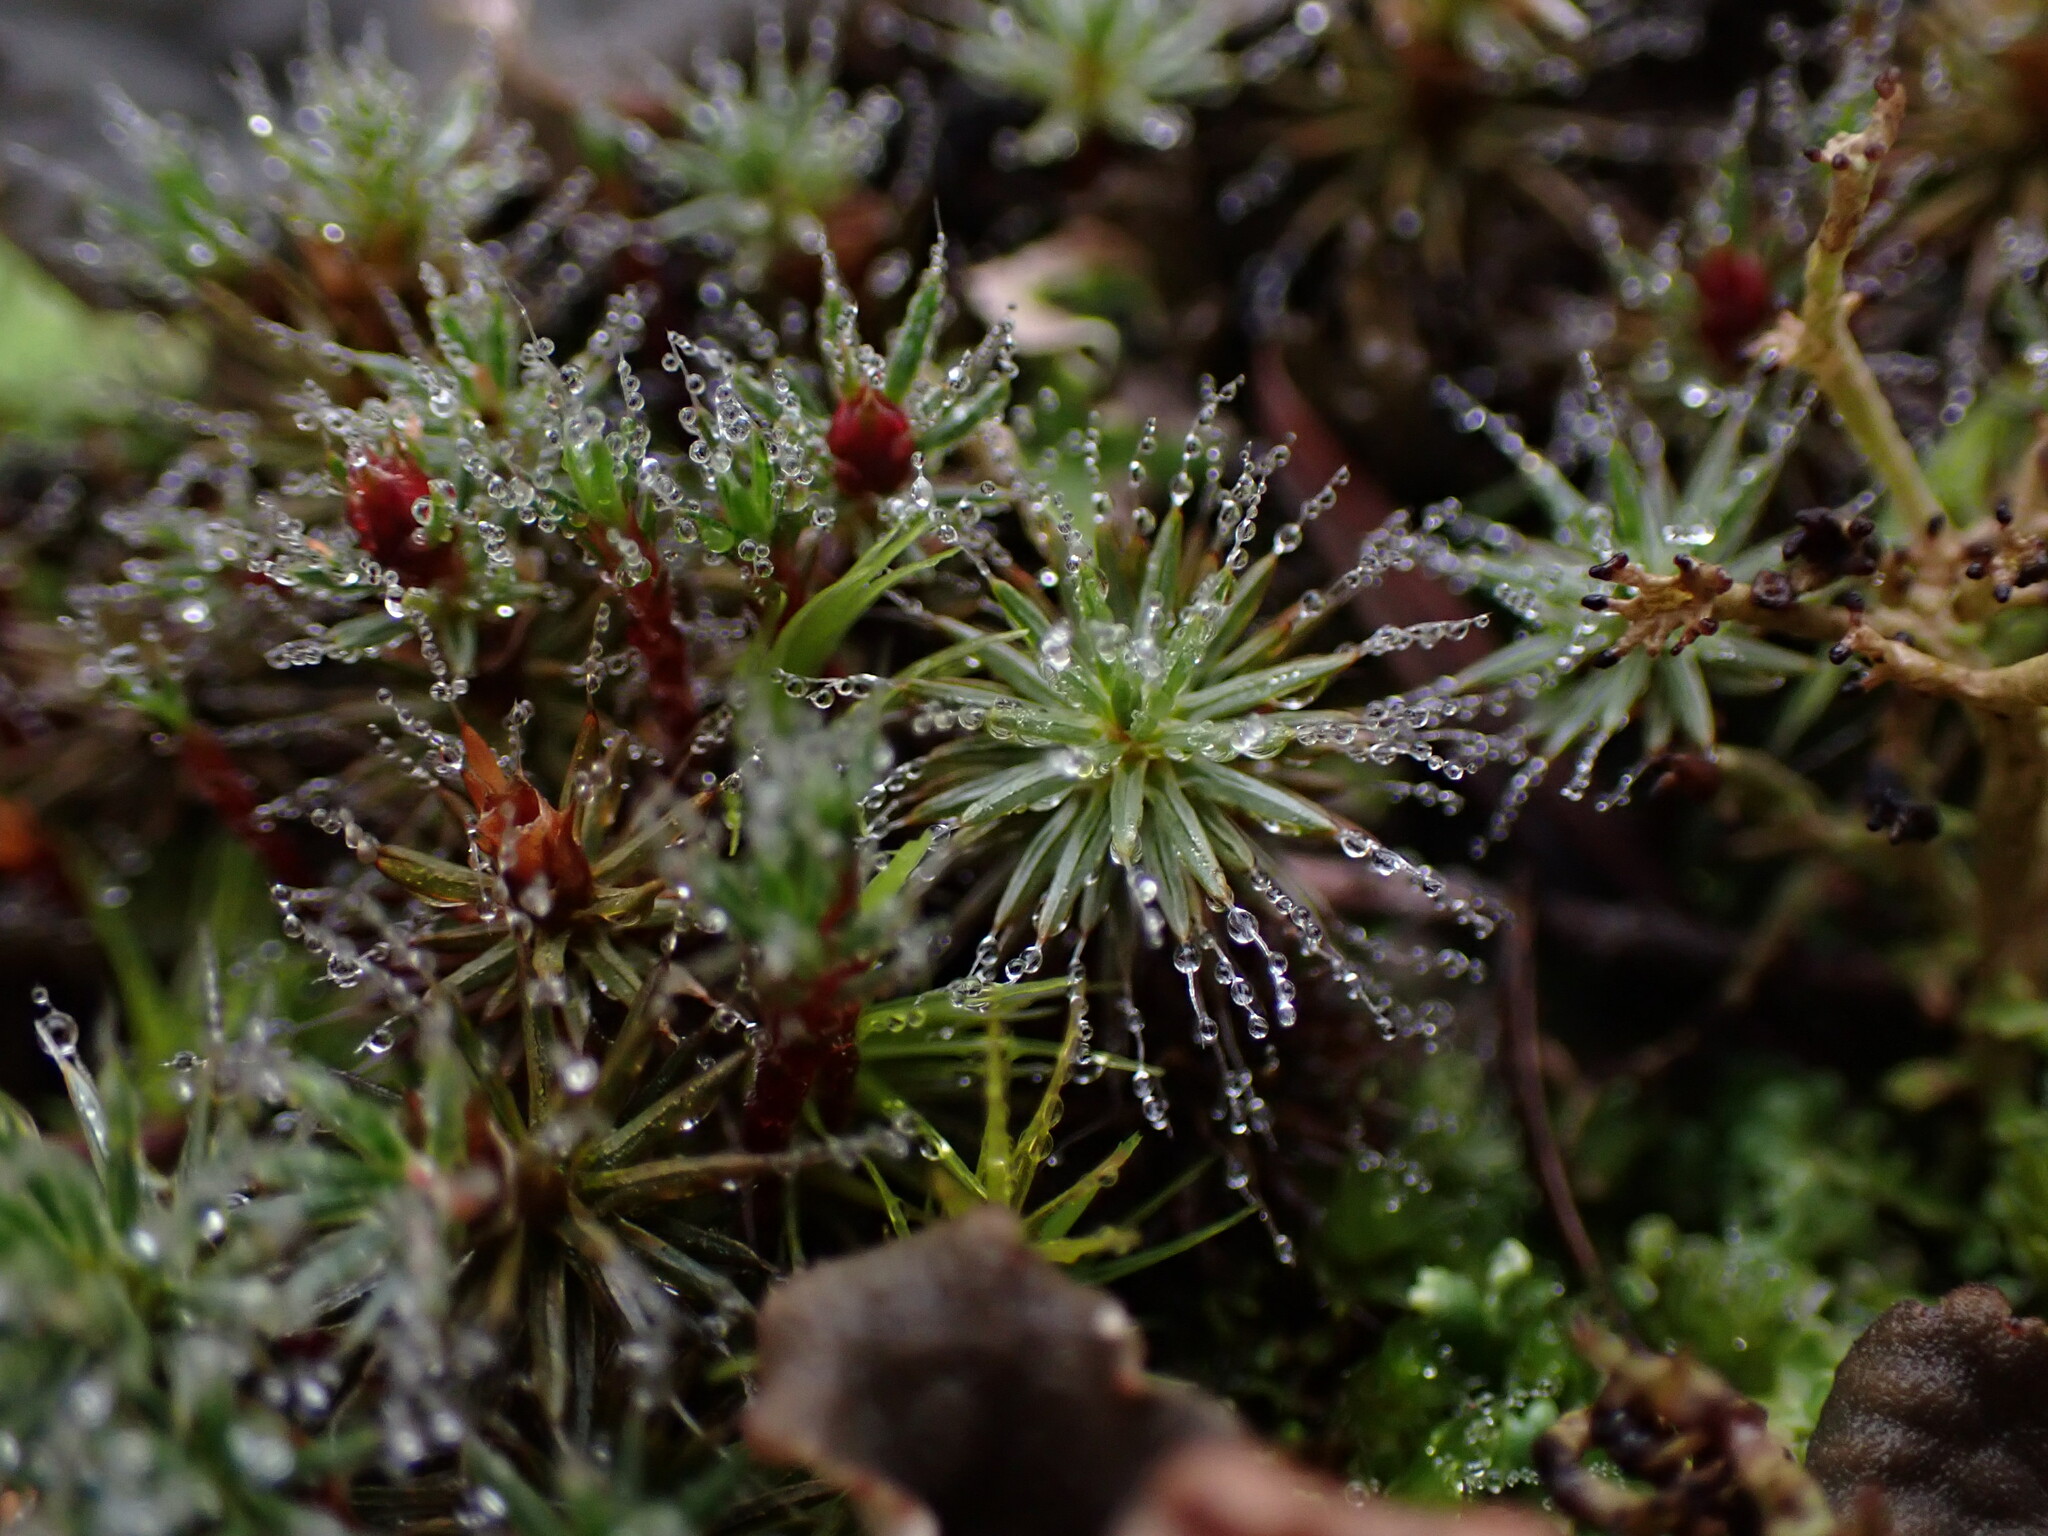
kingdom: Plantae
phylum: Bryophyta
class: Polytrichopsida
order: Polytrichales
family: Polytrichaceae
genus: Polytrichum
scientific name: Polytrichum piliferum
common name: Bristly haircap
